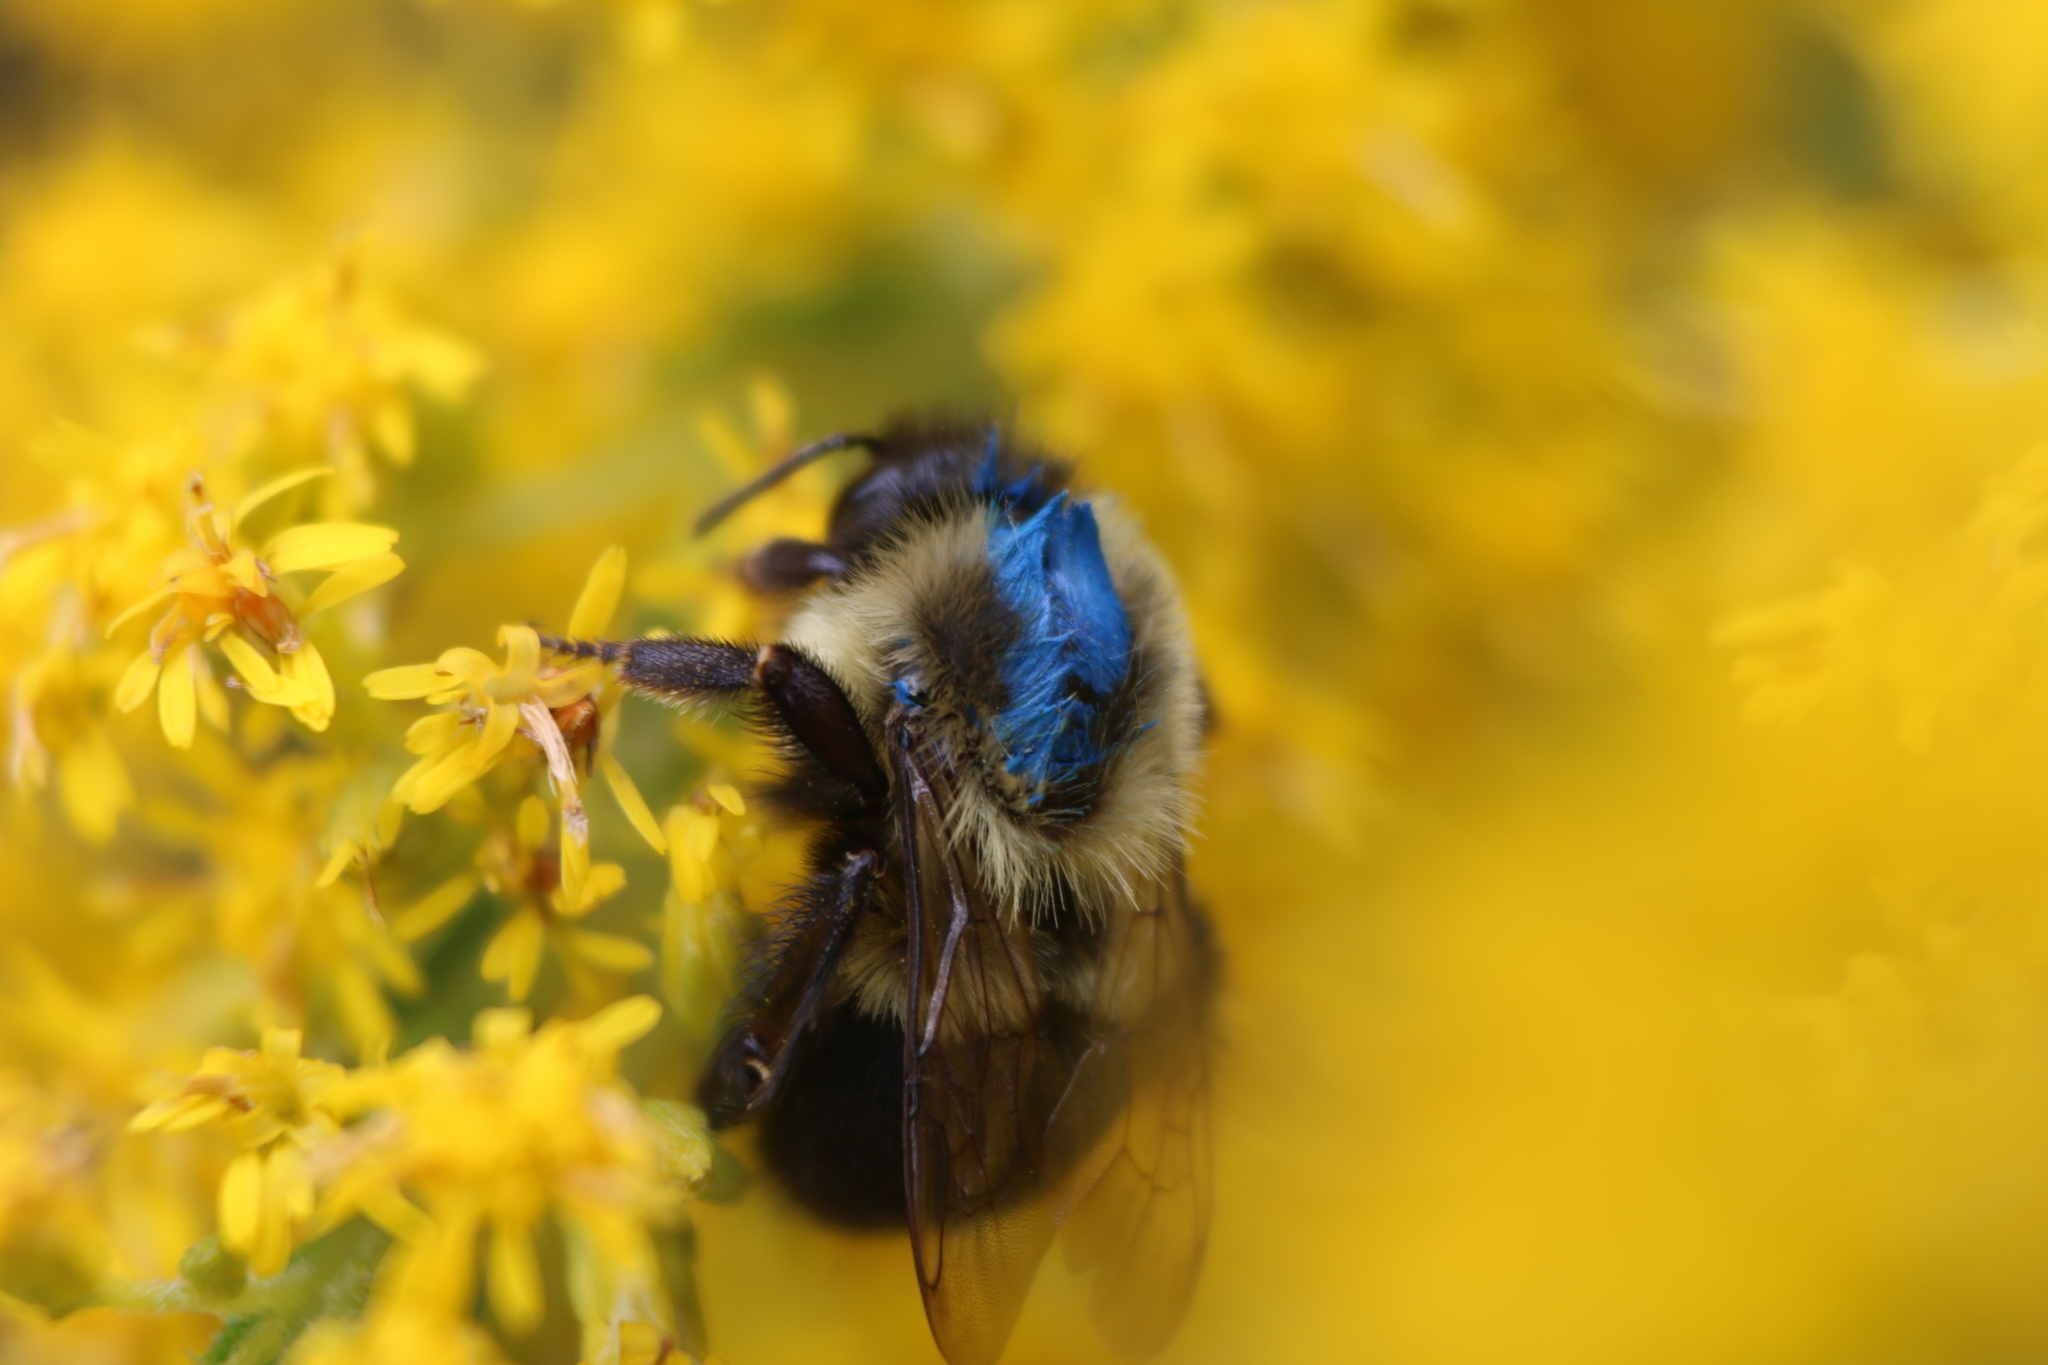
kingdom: Animalia
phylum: Arthropoda
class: Insecta
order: Hymenoptera
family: Apidae
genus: Bombus
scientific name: Bombus impatiens
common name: Common eastern bumble bee
